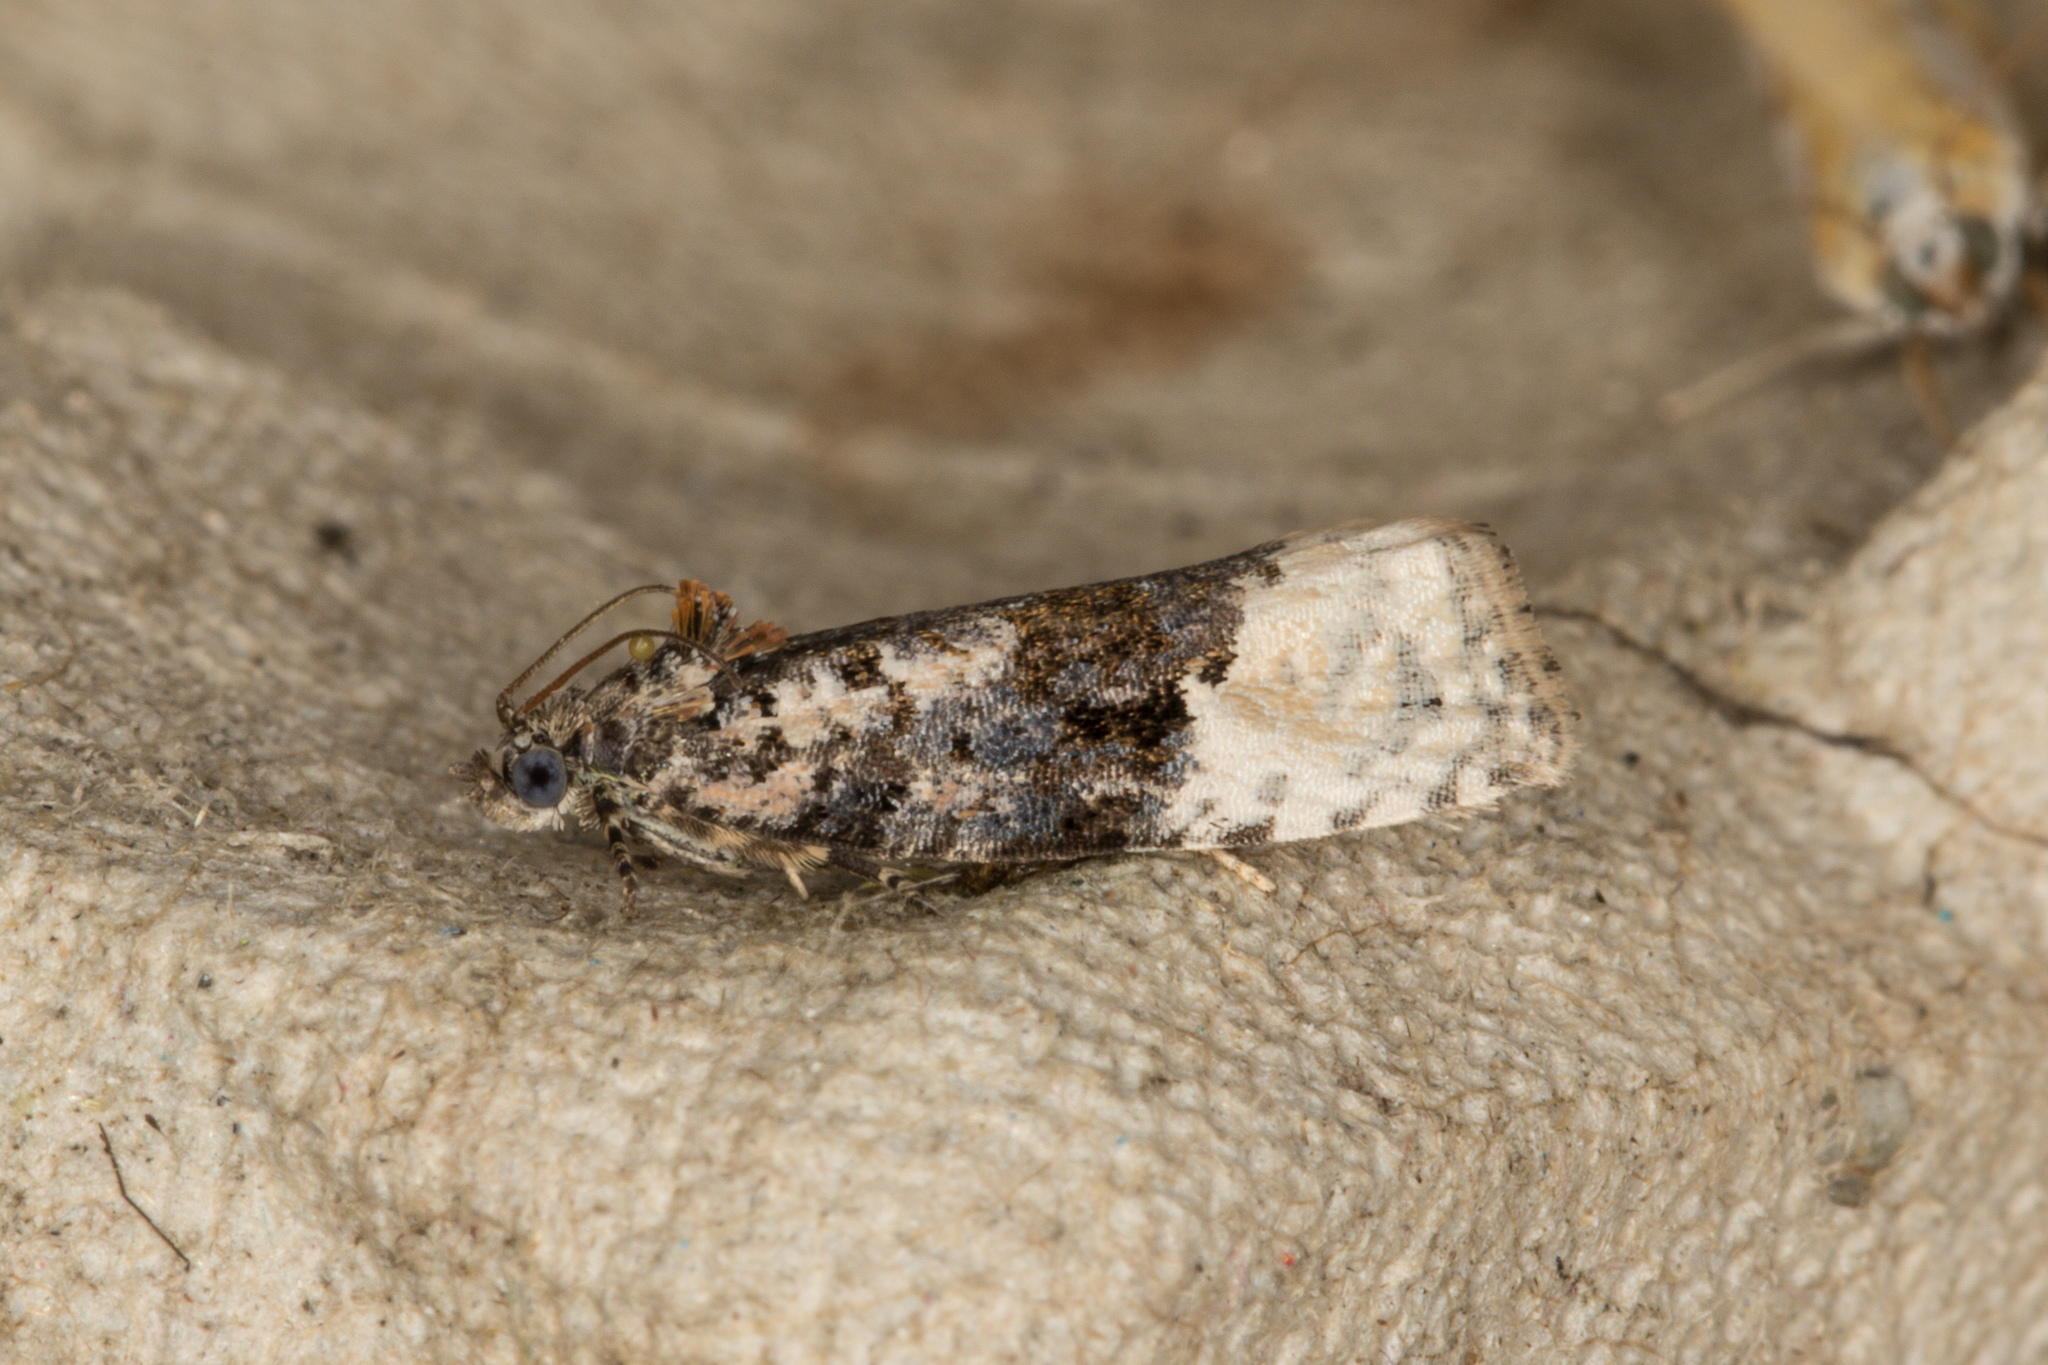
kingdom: Animalia
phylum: Arthropoda
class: Insecta
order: Lepidoptera
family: Tortricidae
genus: Apotomis
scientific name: Apotomis betuletana
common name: Birch marble
